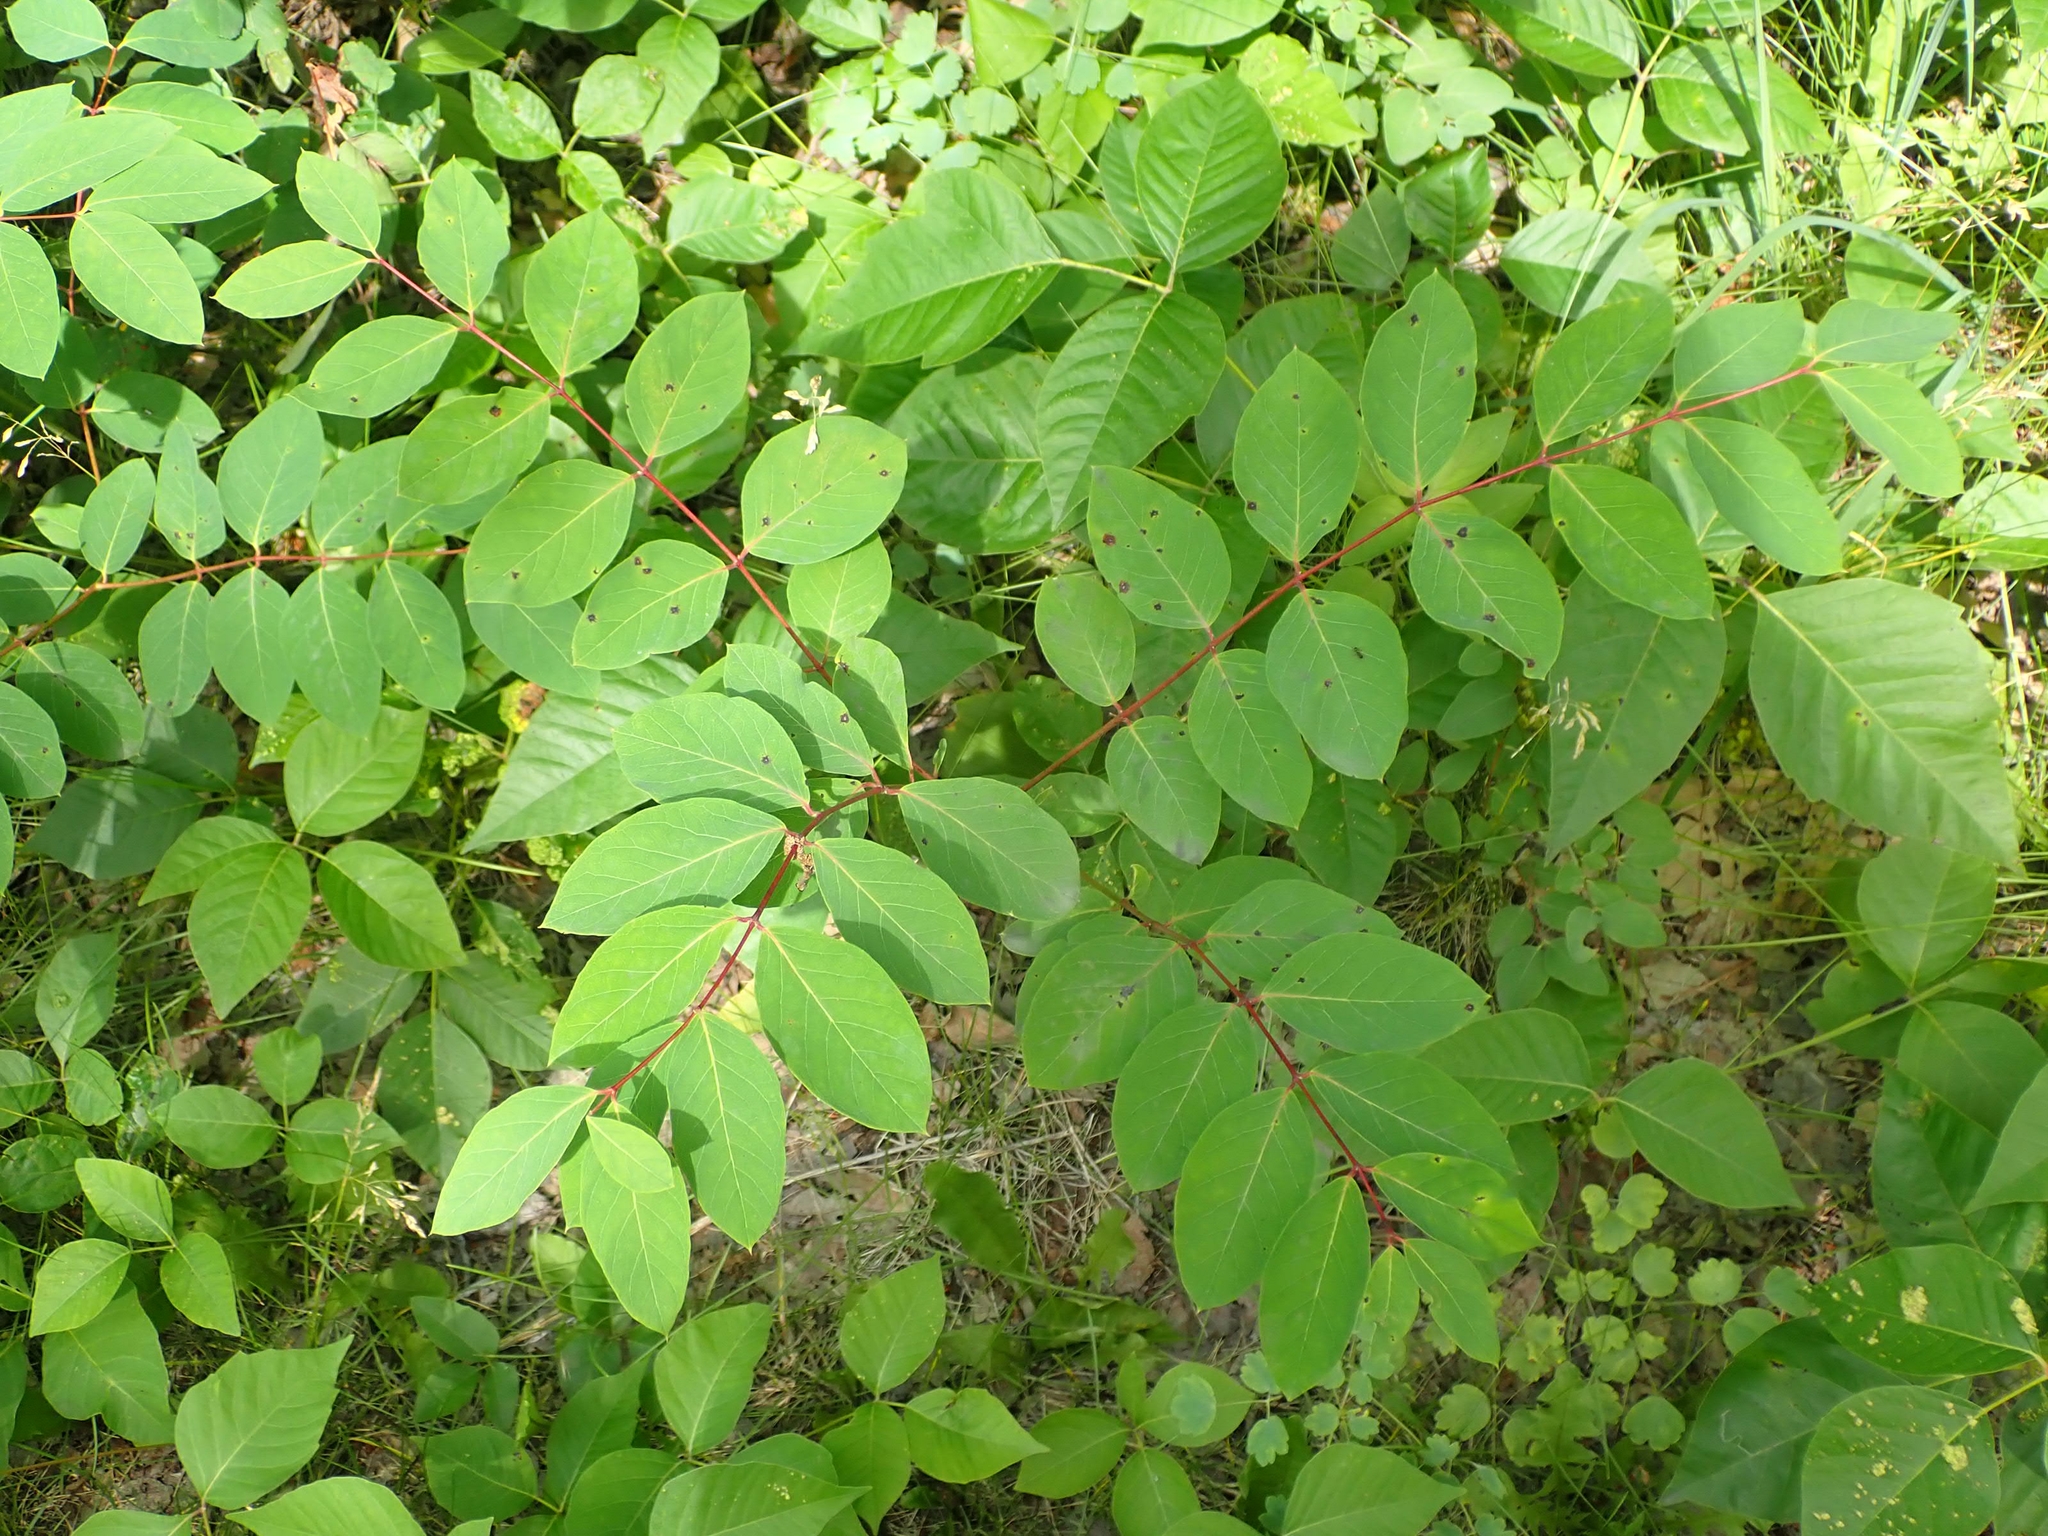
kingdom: Plantae
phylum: Tracheophyta
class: Magnoliopsida
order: Gentianales
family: Apocynaceae
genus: Apocynum
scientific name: Apocynum androsaemifolium
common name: Spreading dogbane
